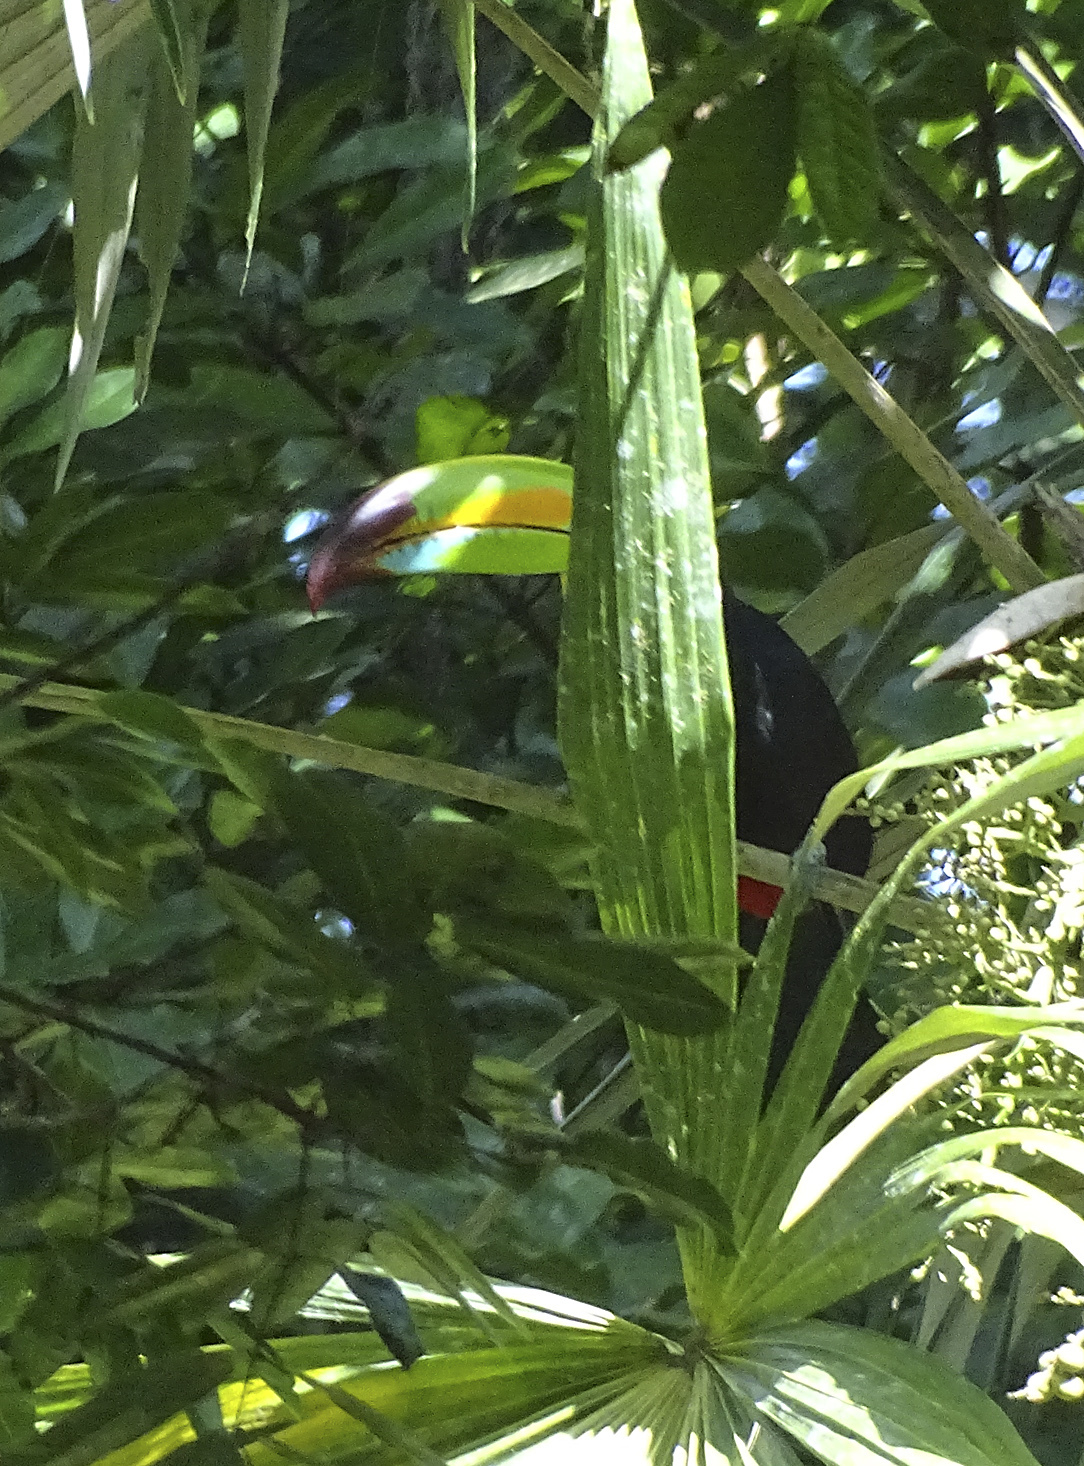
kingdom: Animalia
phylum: Chordata
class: Aves
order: Piciformes
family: Ramphastidae
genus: Ramphastos
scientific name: Ramphastos sulfuratus
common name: Keel-billed toucan
